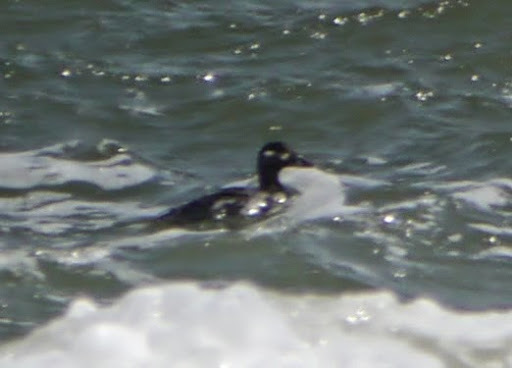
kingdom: Animalia
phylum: Chordata
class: Aves
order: Anseriformes
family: Anatidae
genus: Melanitta
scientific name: Melanitta deglandi
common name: White-winged scoter
